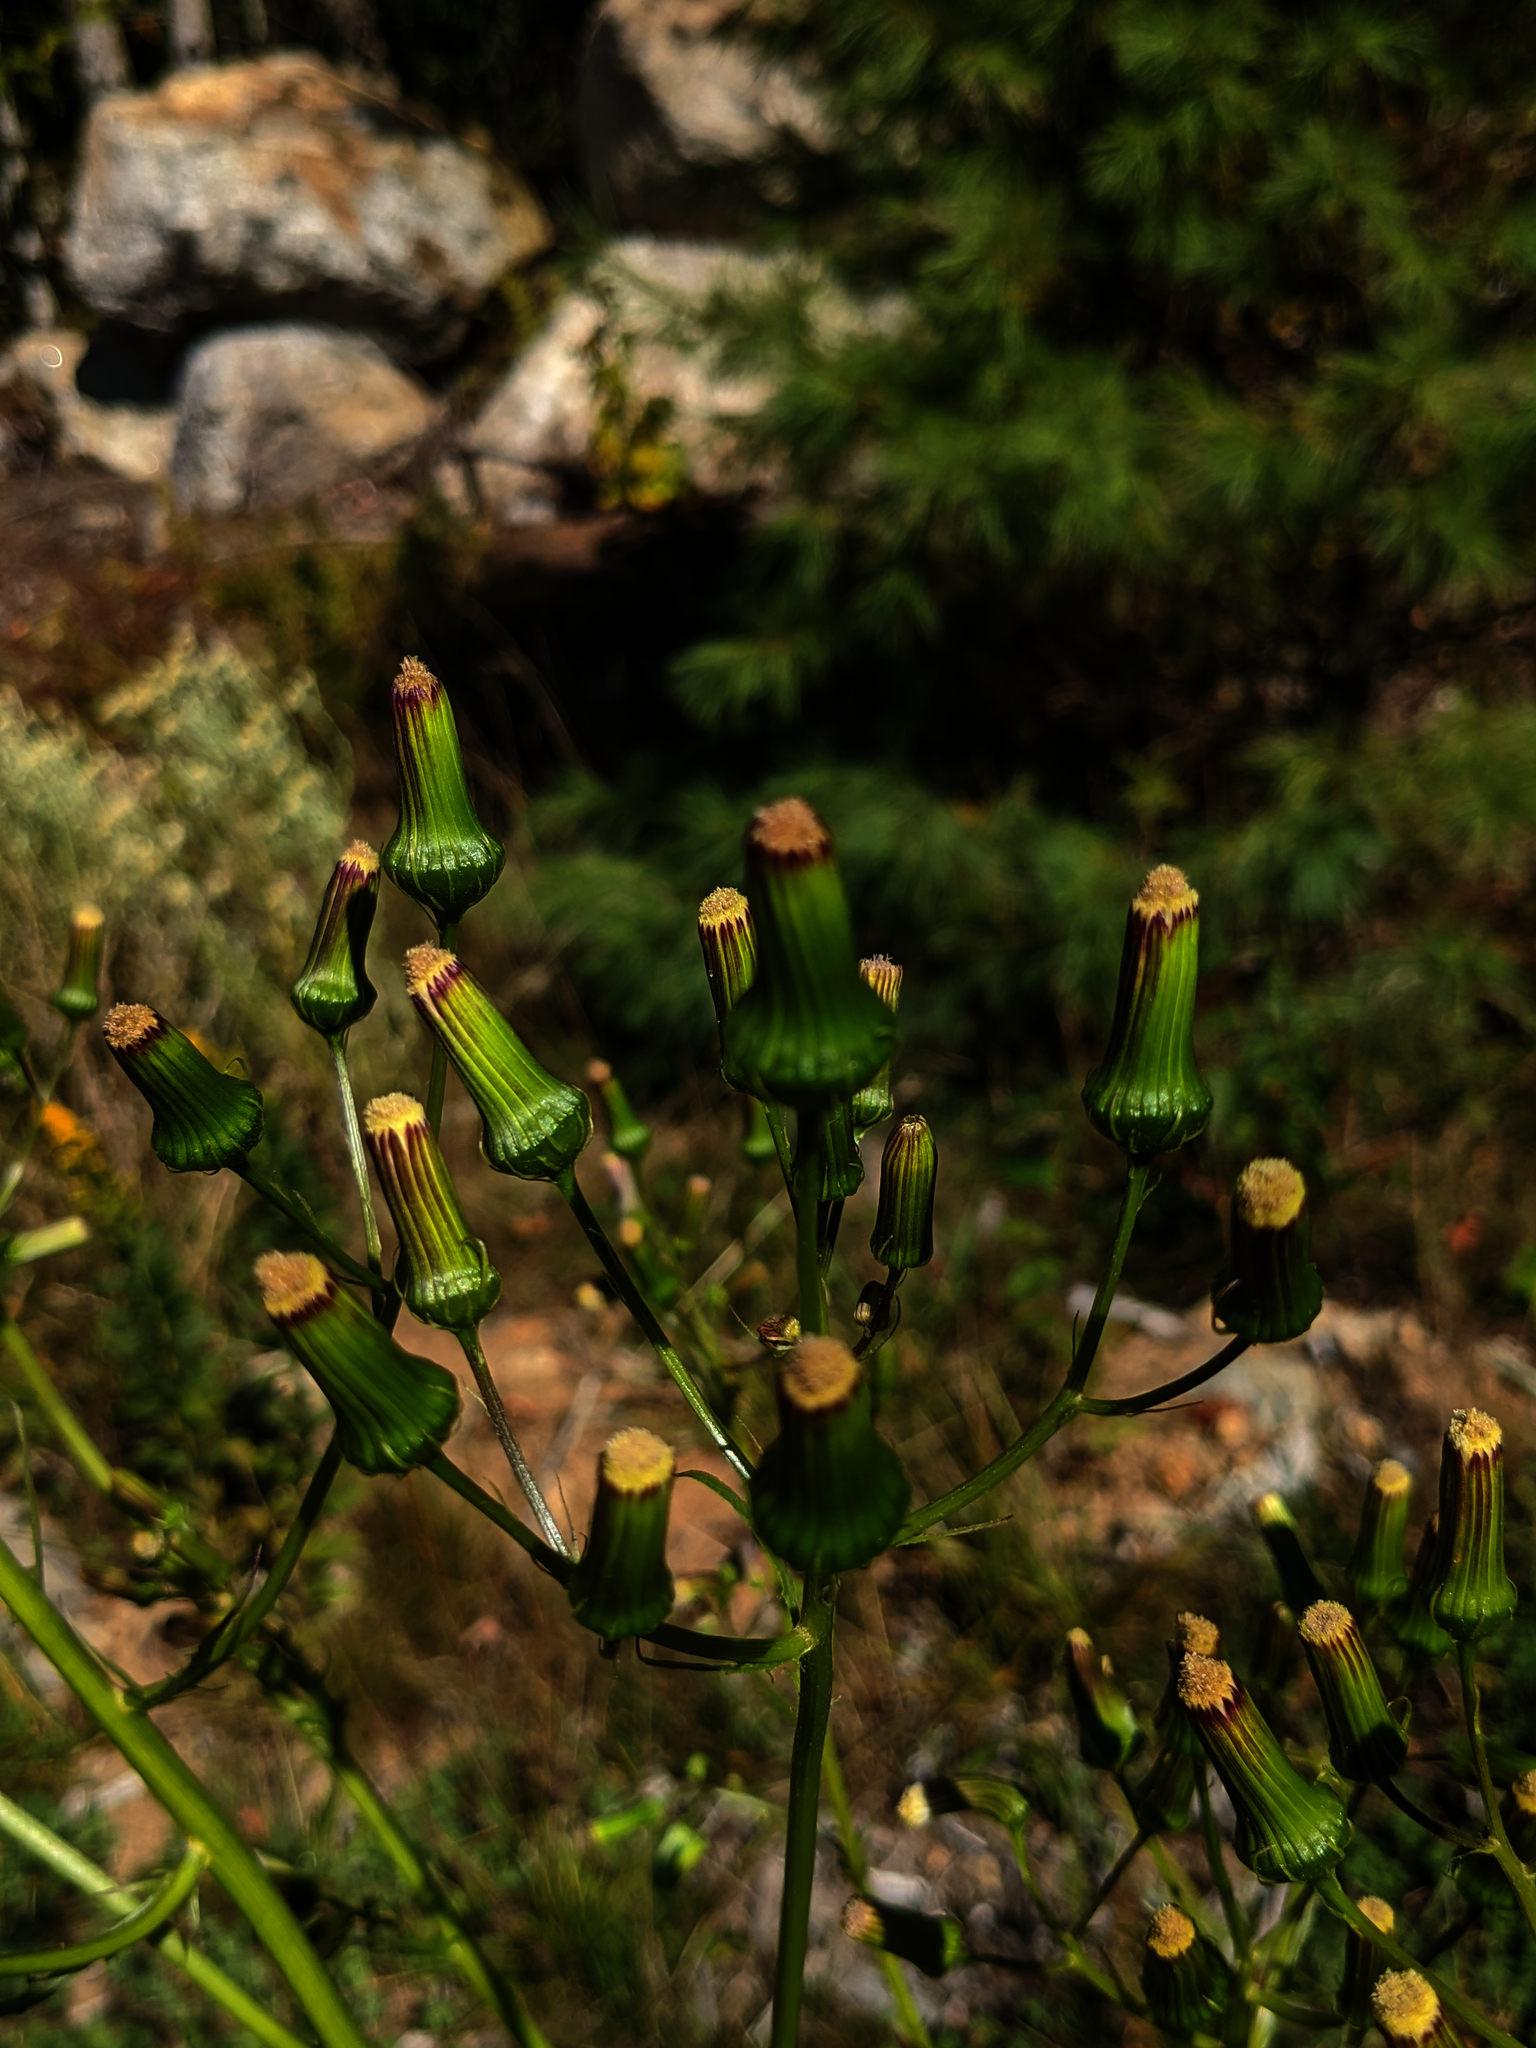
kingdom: Plantae
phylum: Tracheophyta
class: Magnoliopsida
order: Asterales
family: Asteraceae
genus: Erechtites
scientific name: Erechtites hieraciifolius
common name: American burnweed
